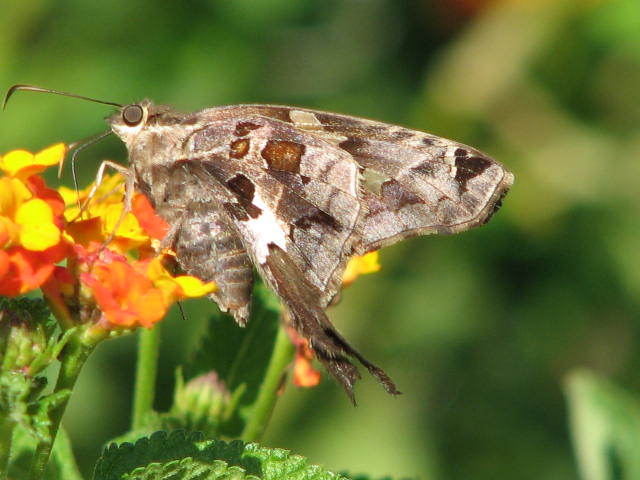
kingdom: Animalia
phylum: Arthropoda
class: Insecta
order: Lepidoptera
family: Hesperiidae
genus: Chioides
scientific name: Chioides zilpa
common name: Zilpa longtail
